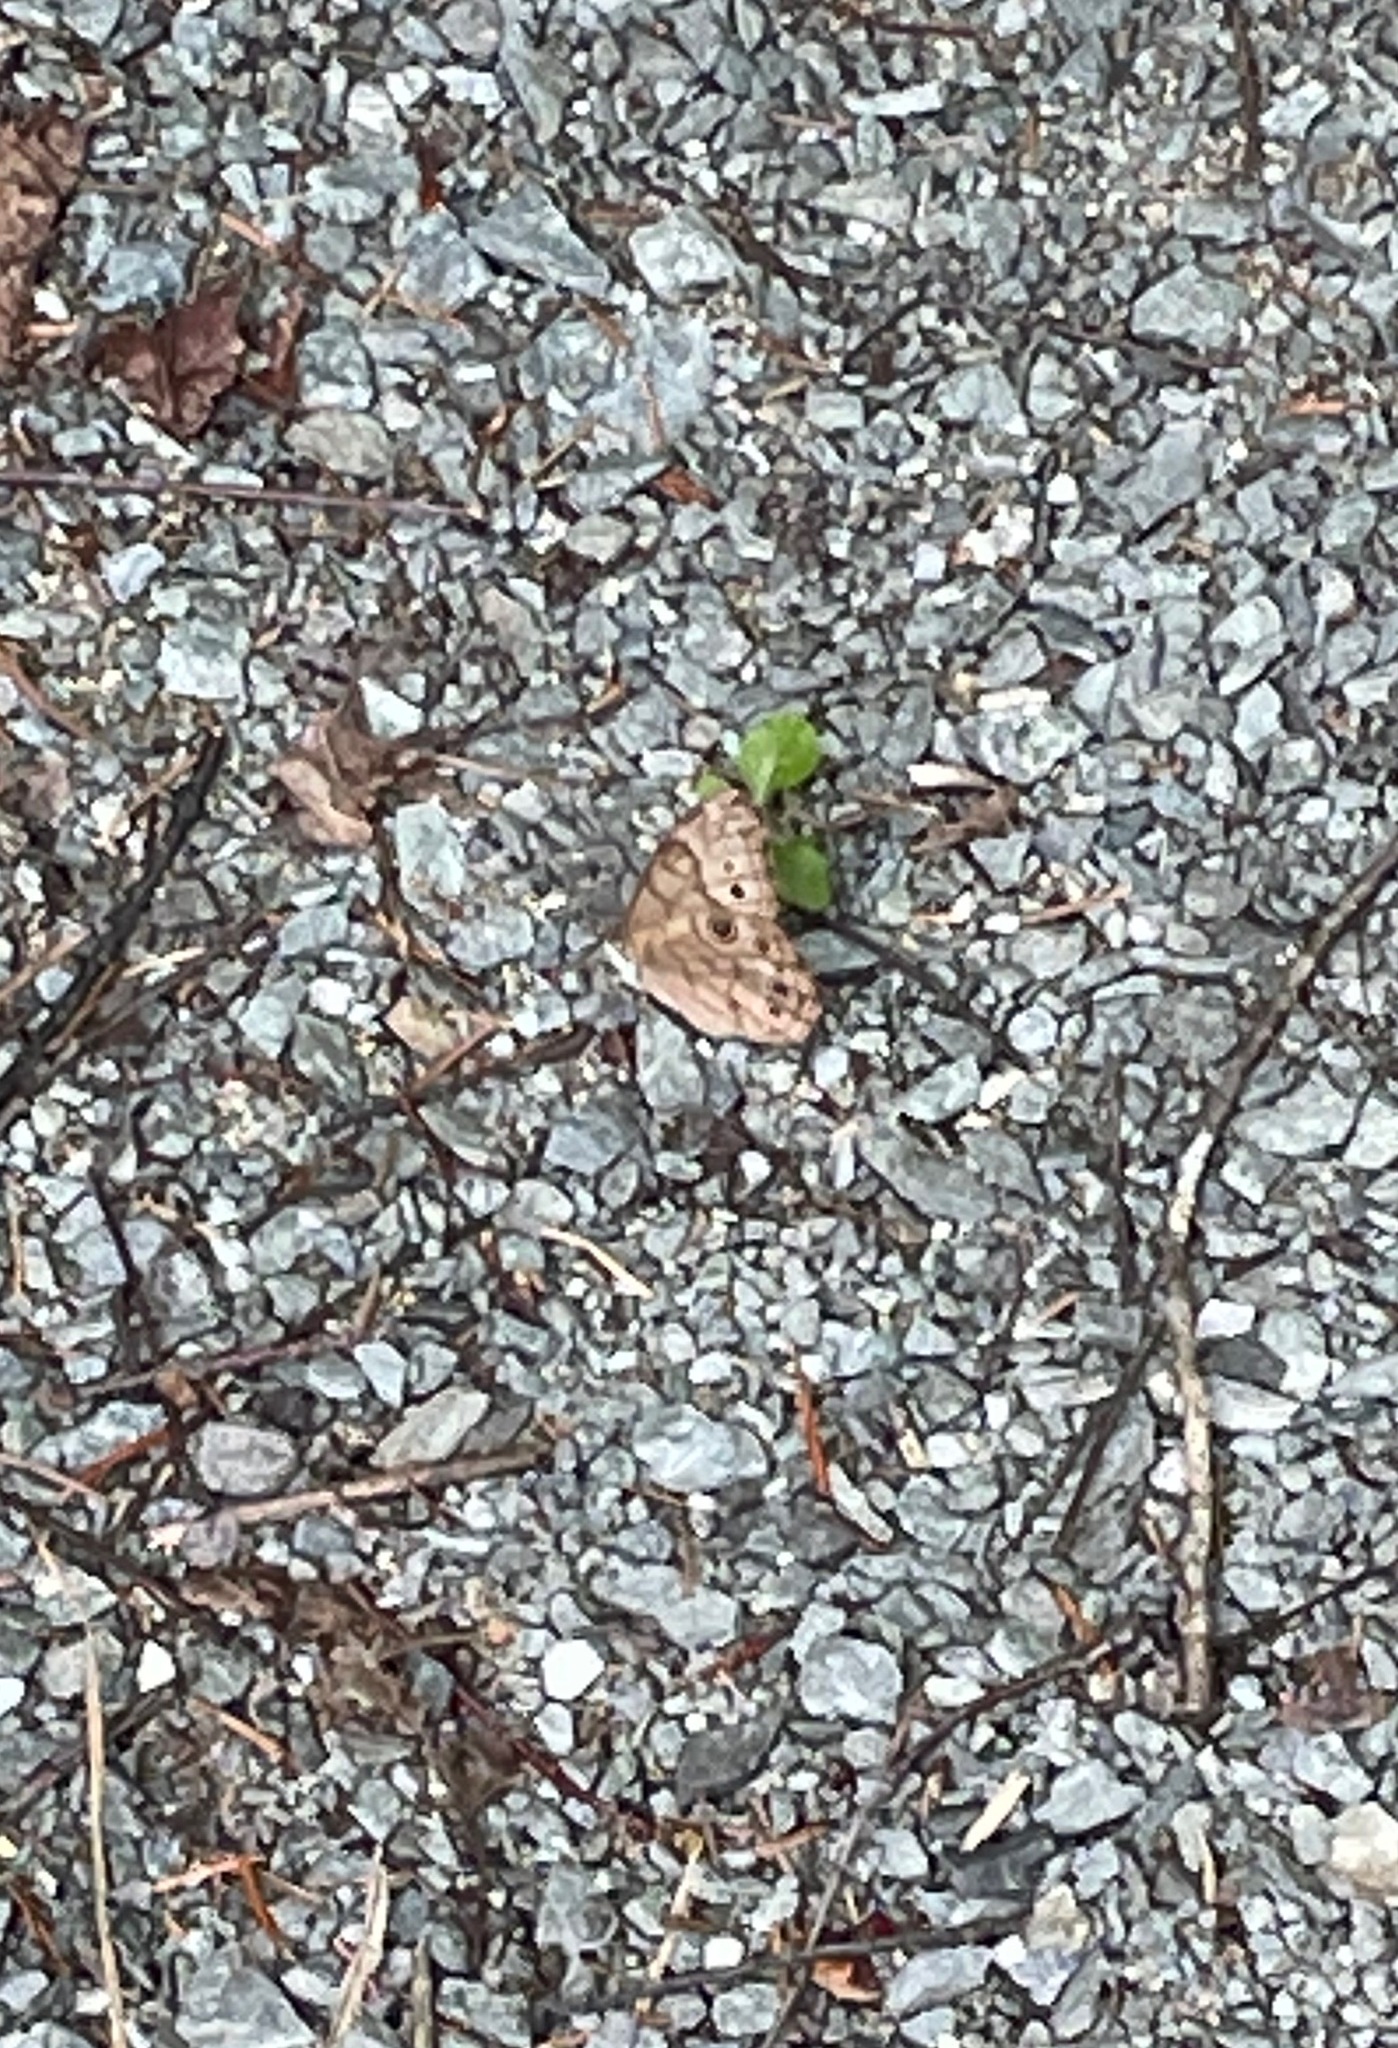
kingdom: Animalia
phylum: Arthropoda
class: Insecta
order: Lepidoptera
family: Nymphalidae
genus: Lethe
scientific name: Lethe anthedon
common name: Northern pearly-eye
